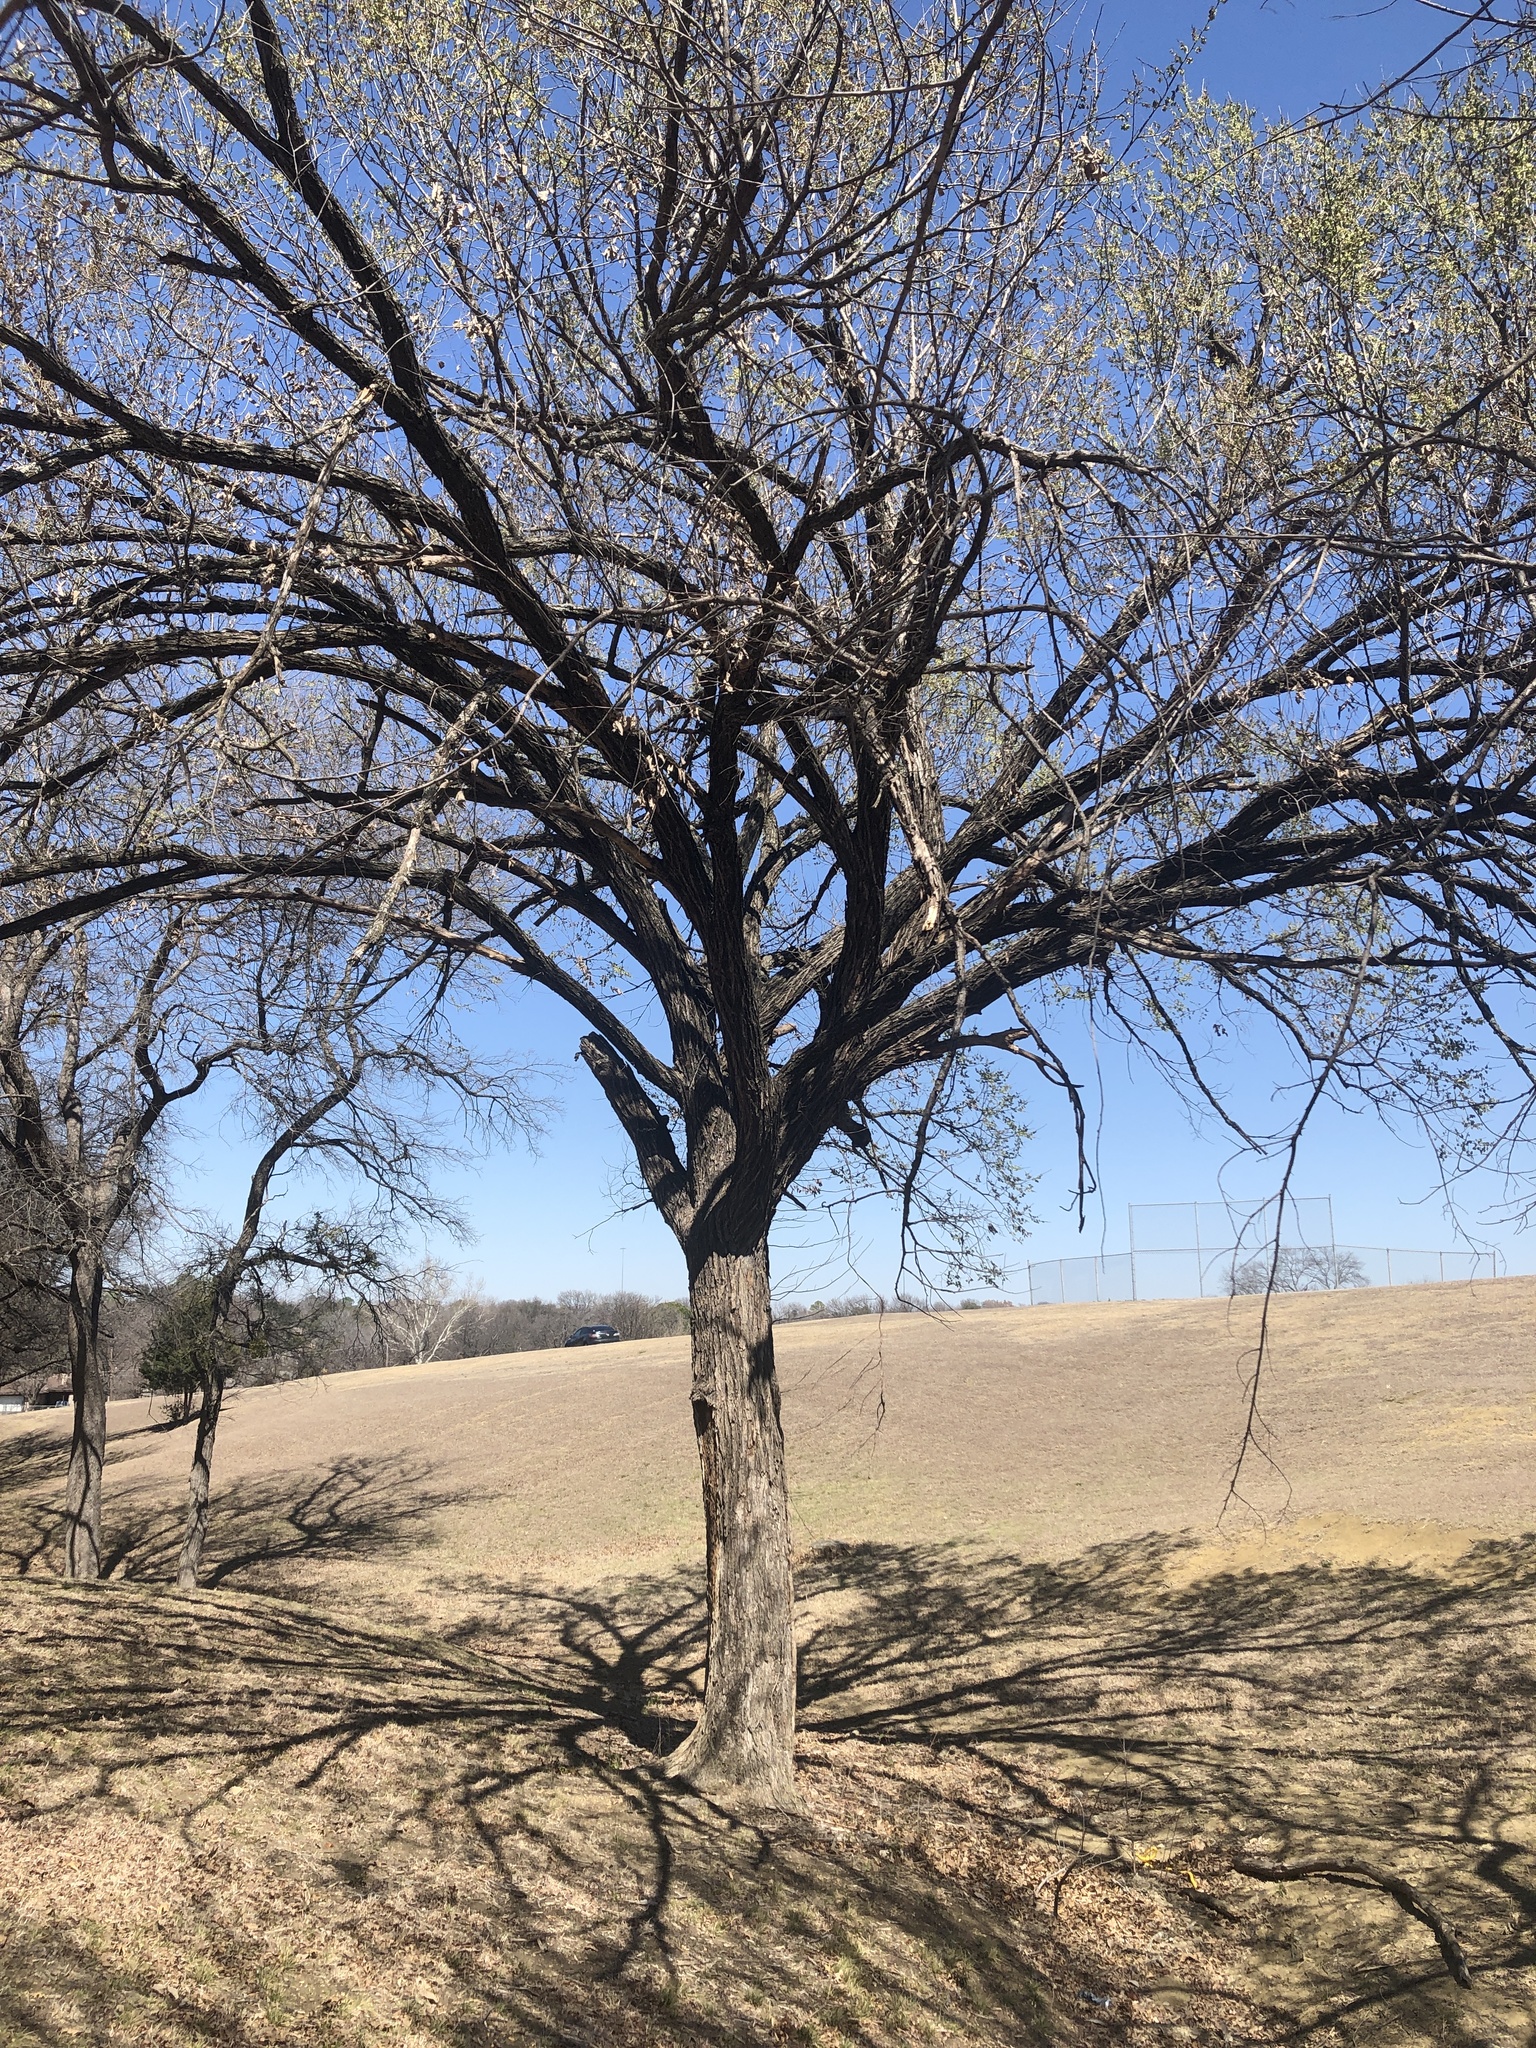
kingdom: Plantae
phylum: Tracheophyta
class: Magnoliopsida
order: Rosales
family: Ulmaceae
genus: Ulmus
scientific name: Ulmus americana
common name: American elm
